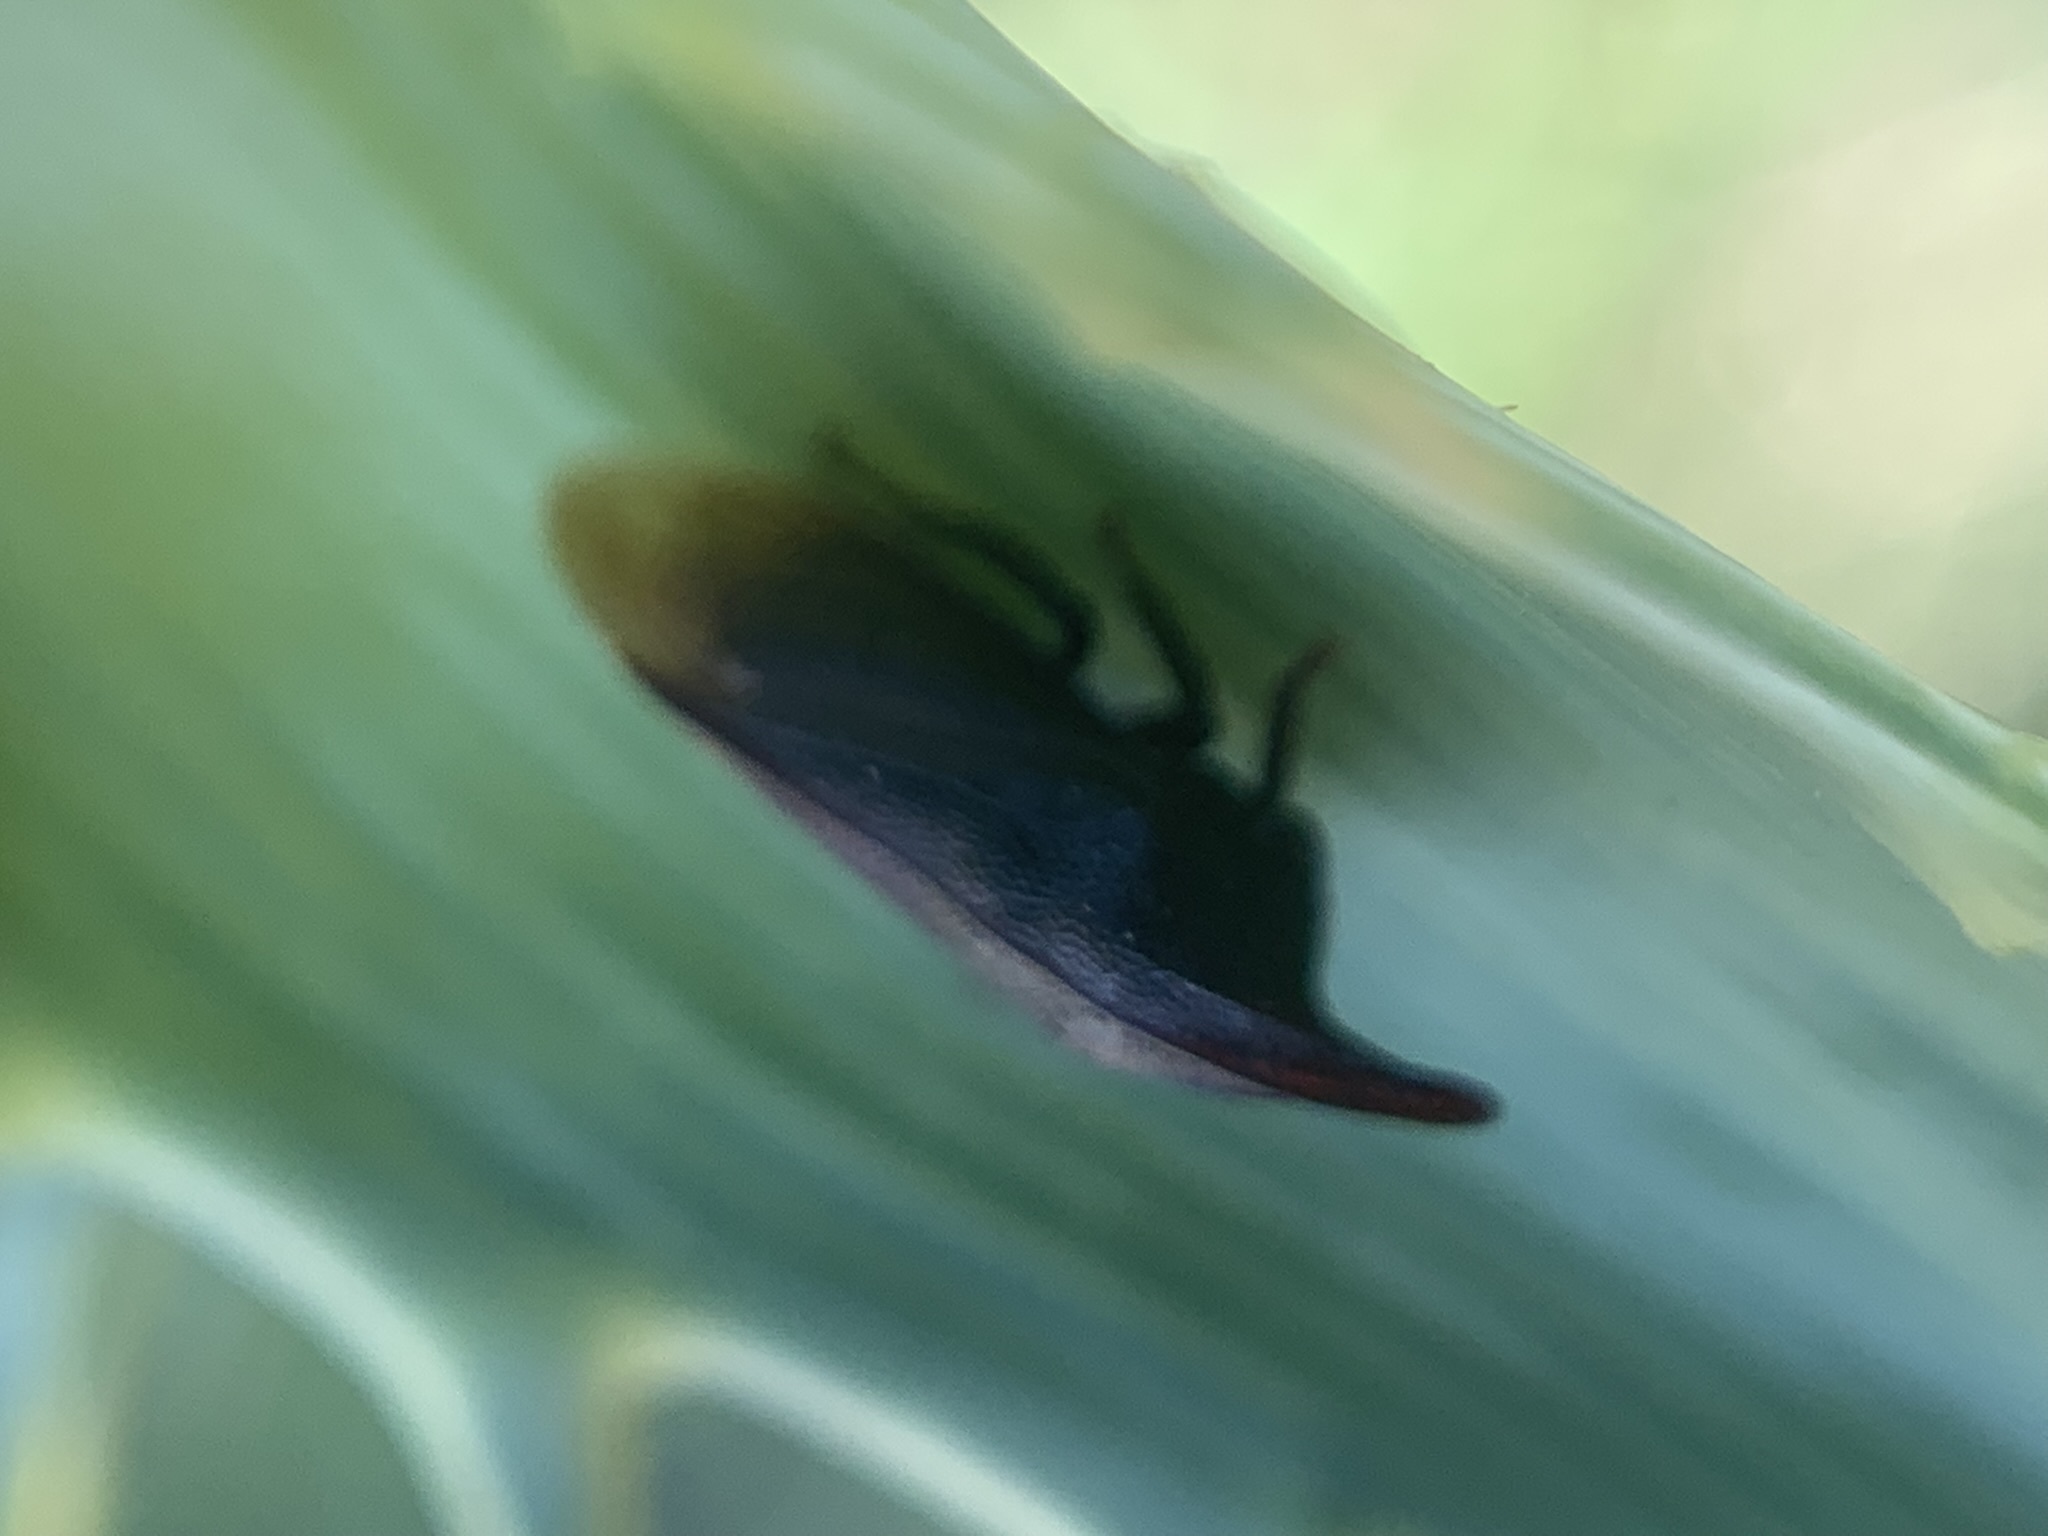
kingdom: Animalia
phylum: Arthropoda
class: Insecta
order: Hemiptera
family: Membracidae
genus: Kronides
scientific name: Kronides incumbens
